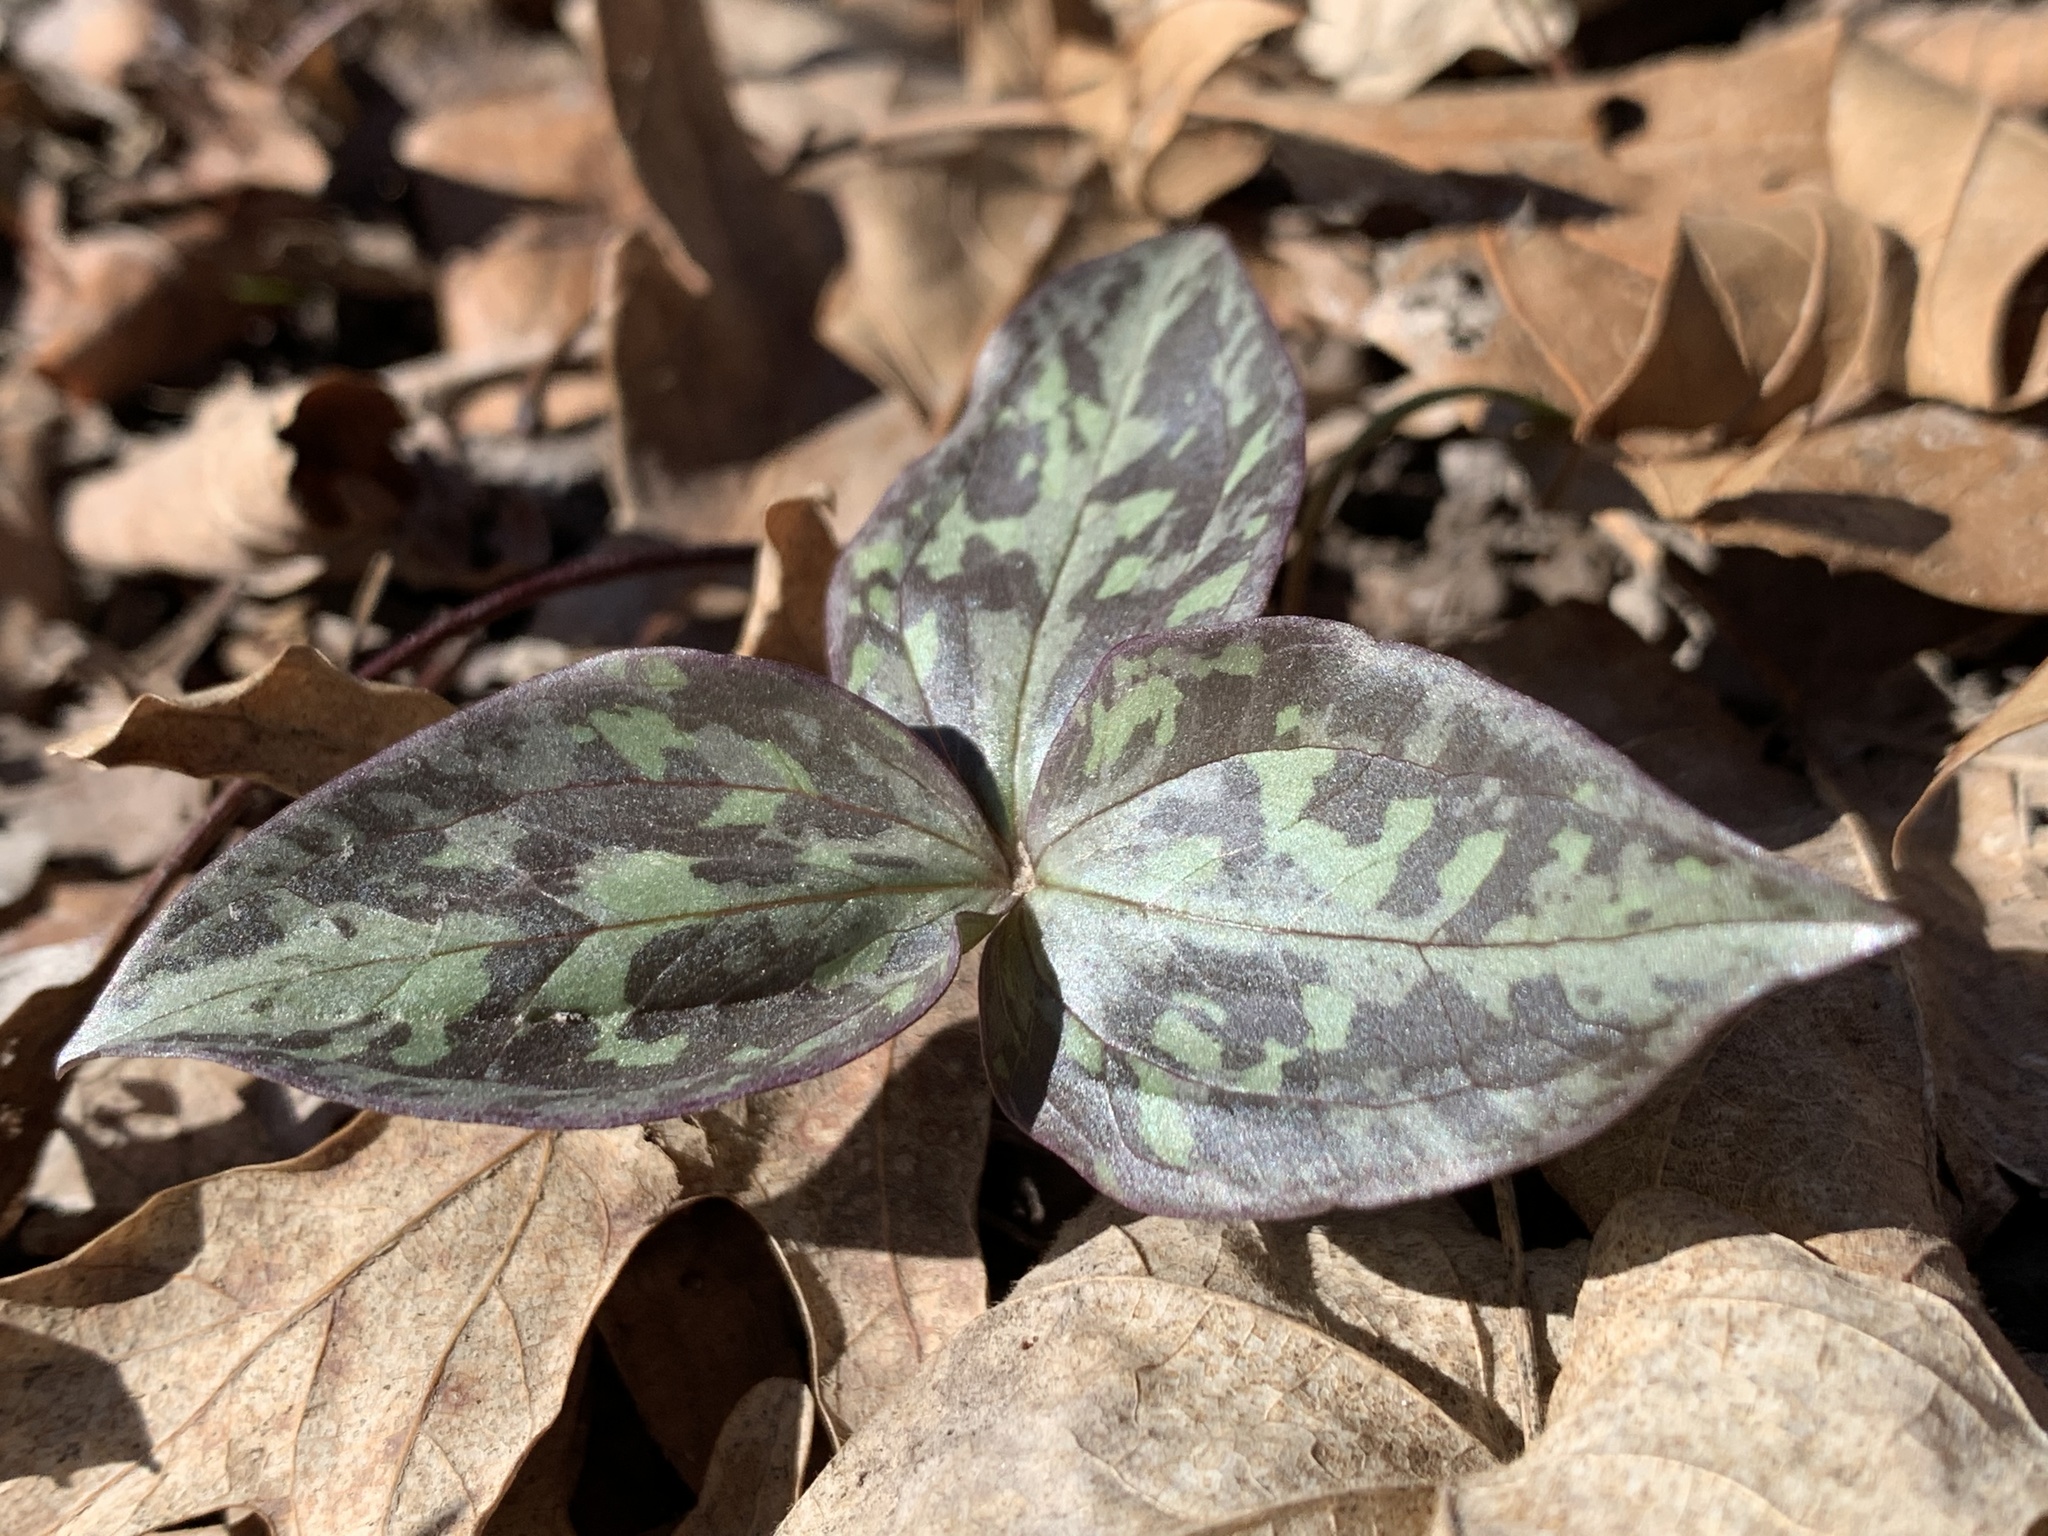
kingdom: Plantae
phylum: Tracheophyta
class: Liliopsida
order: Liliales
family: Melanthiaceae
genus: Trillium
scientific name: Trillium recurvatum
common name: Bloody butcher
